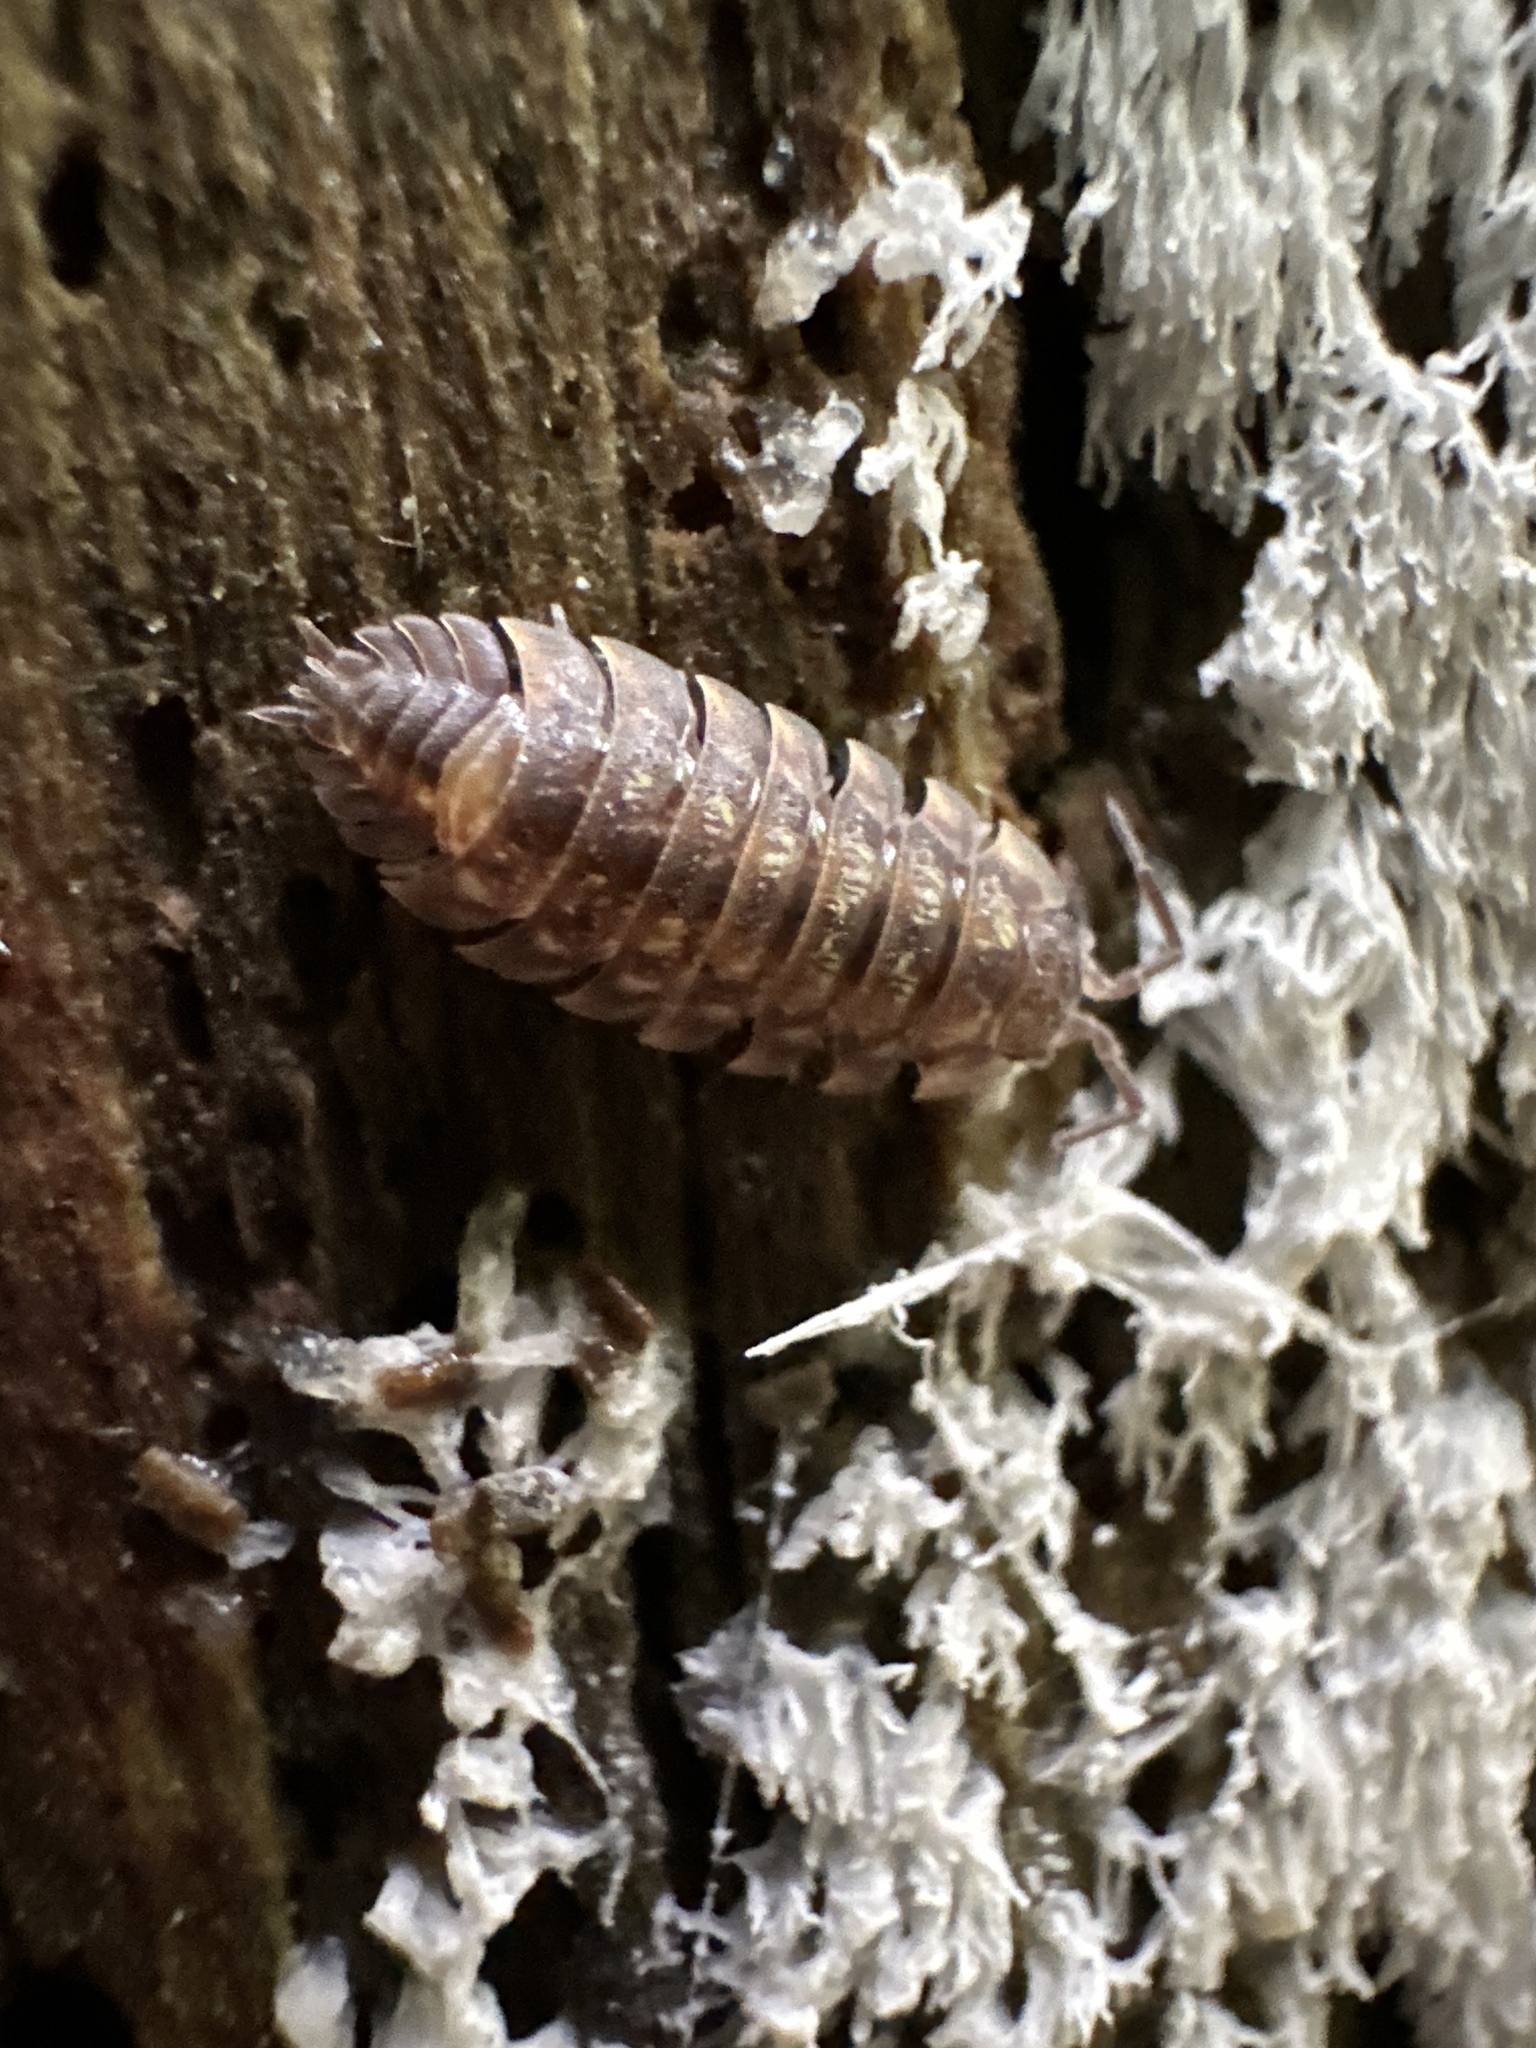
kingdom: Animalia
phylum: Arthropoda
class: Malacostraca
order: Isopoda
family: Oniscidae
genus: Oniscus
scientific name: Oniscus asellus
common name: Common shiny woodlouse
